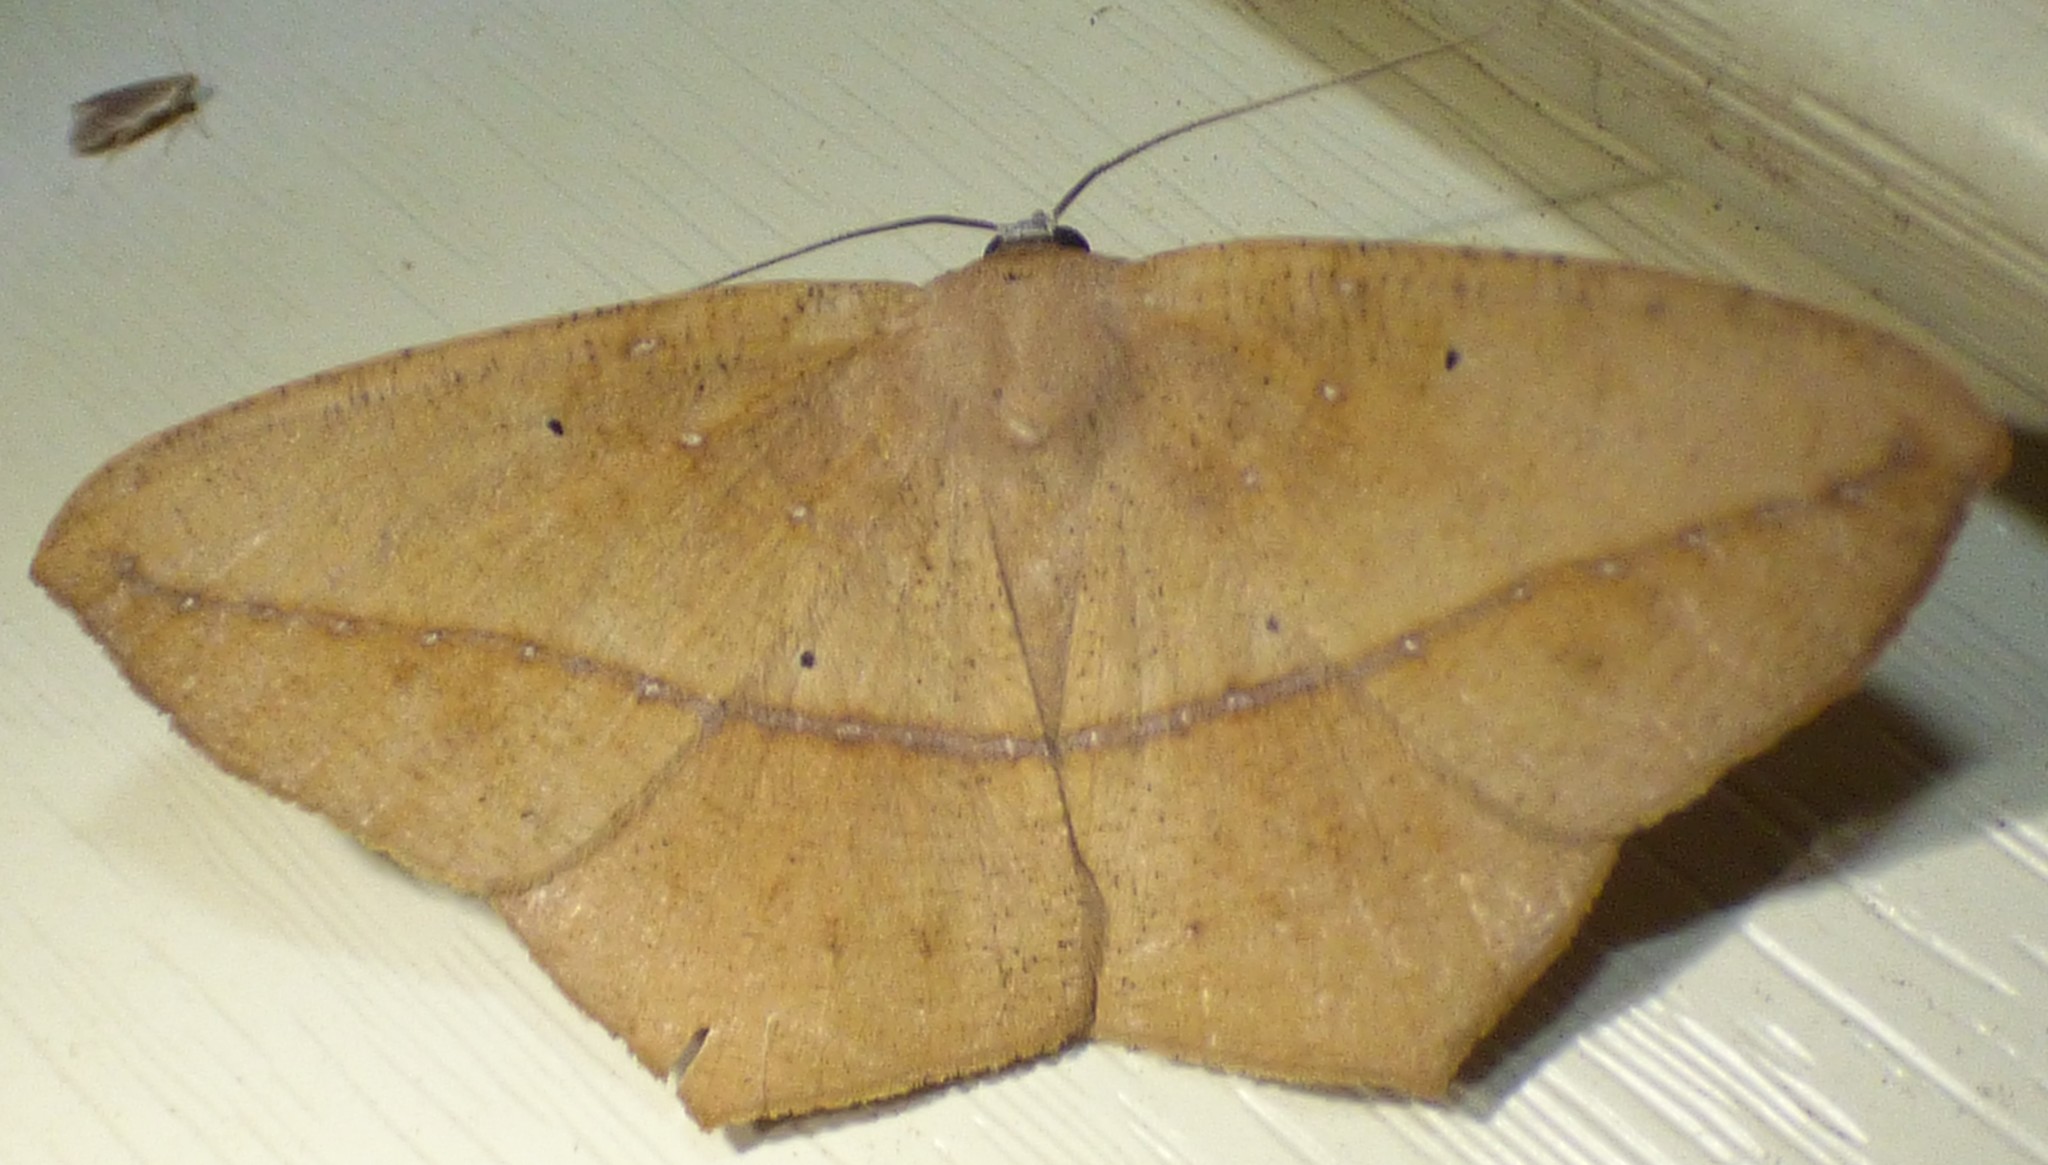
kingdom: Animalia
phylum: Arthropoda
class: Insecta
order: Lepidoptera
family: Geometridae
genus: Prochoerodes
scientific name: Prochoerodes lineola
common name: Large maple spanworm
